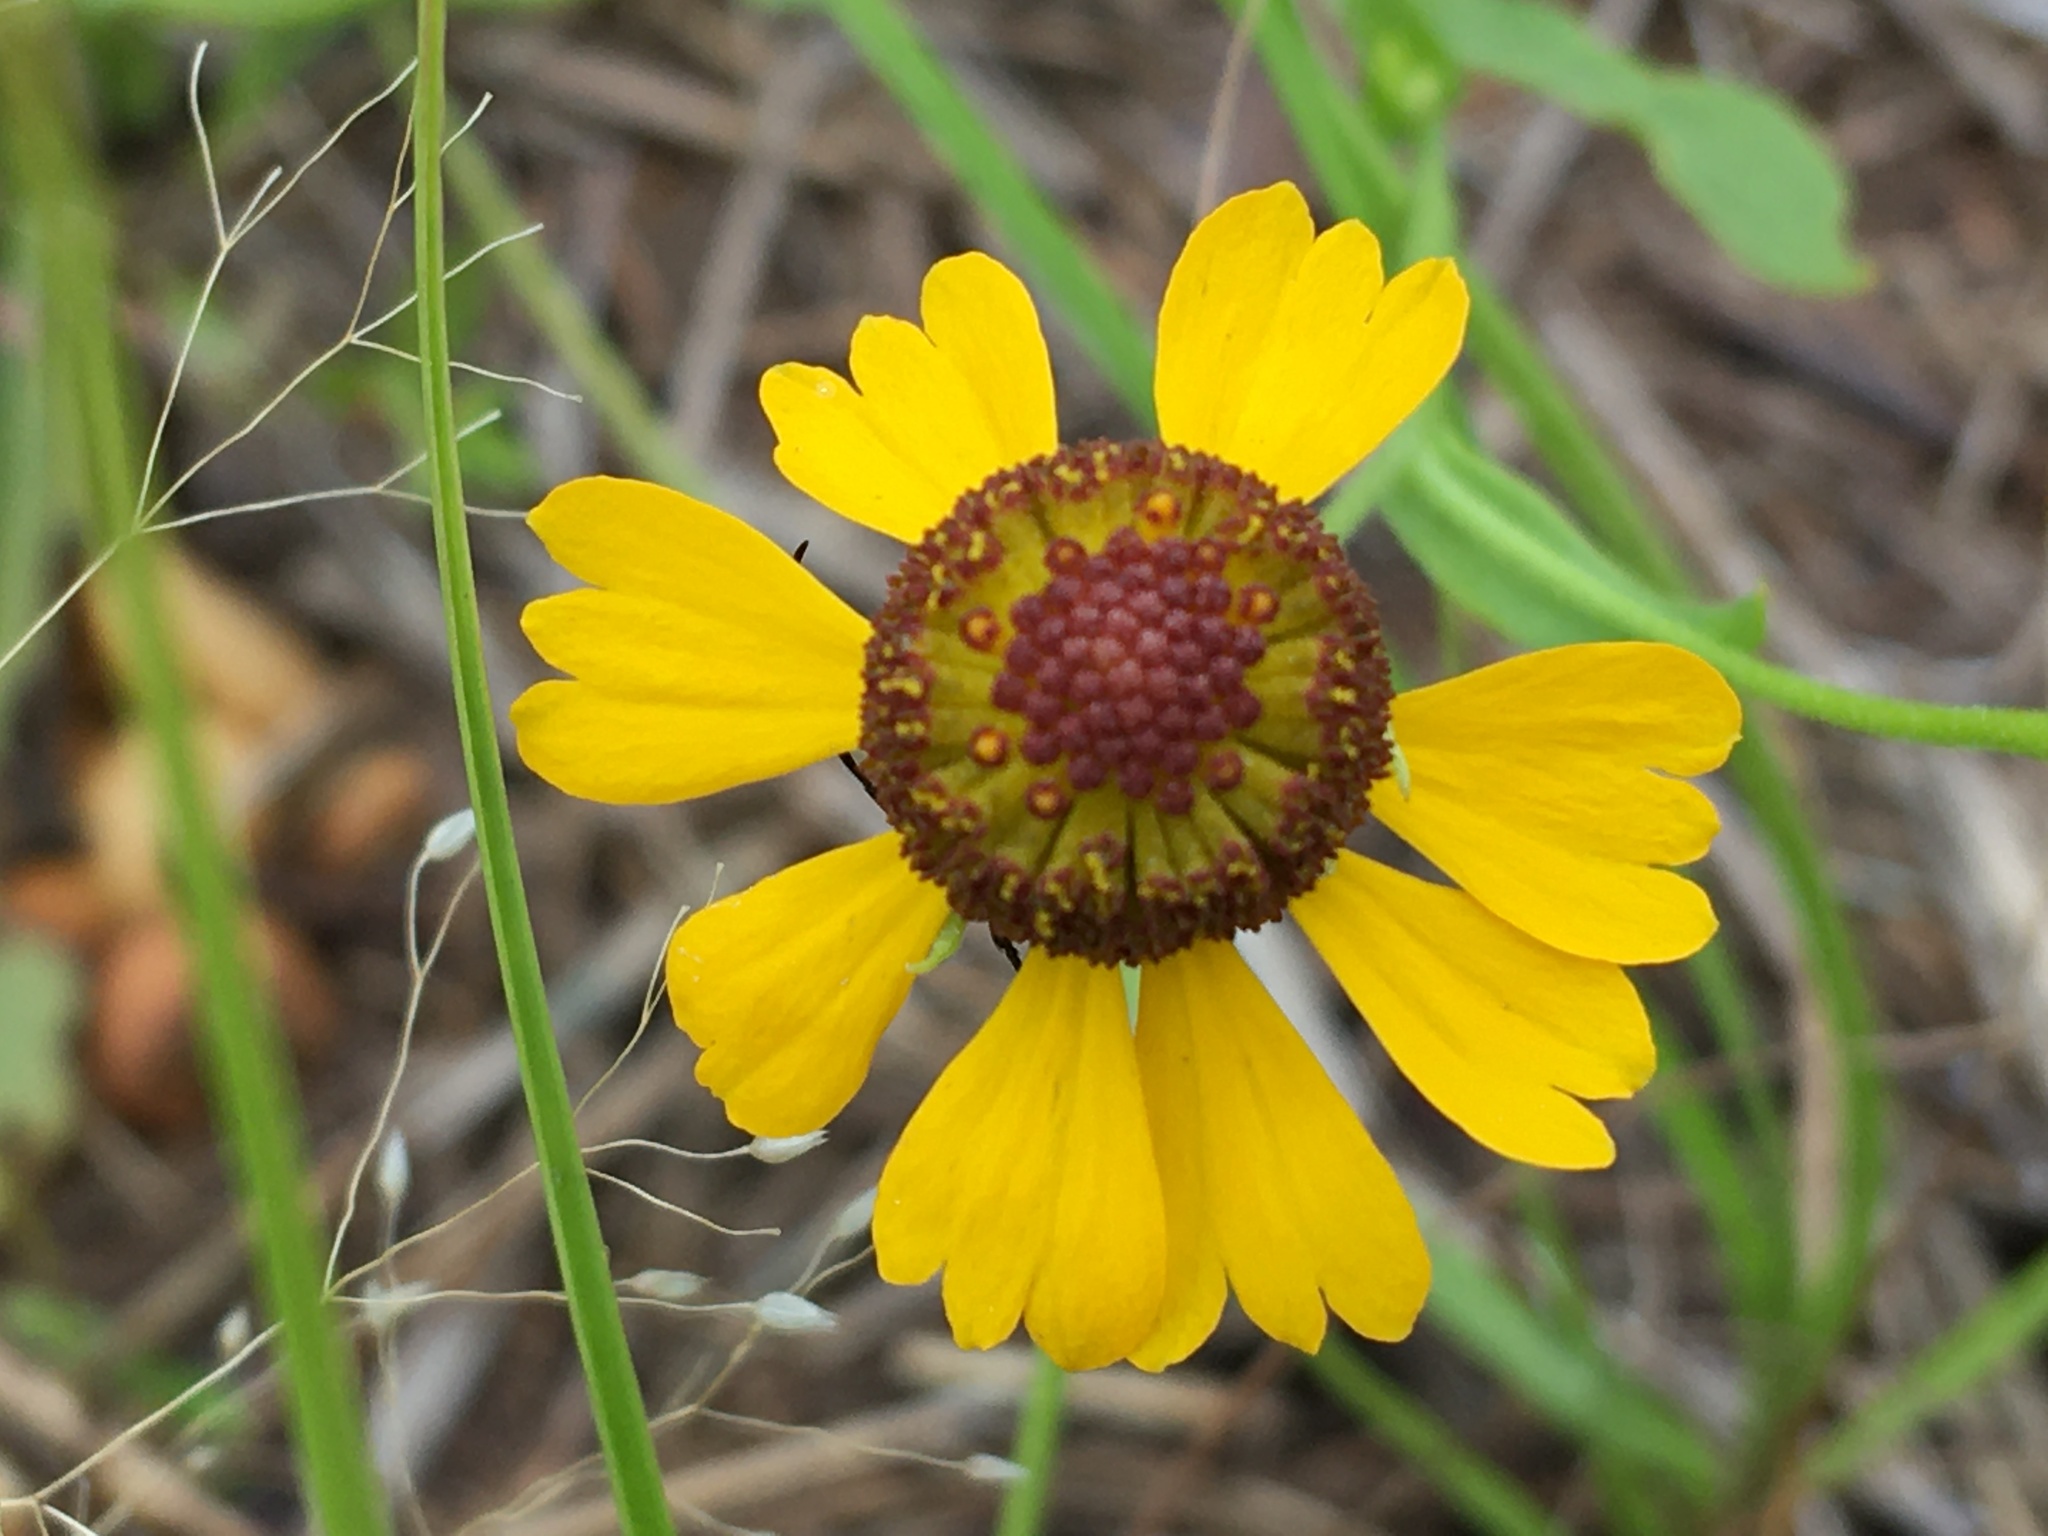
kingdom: Plantae
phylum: Tracheophyta
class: Magnoliopsida
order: Asterales
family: Asteraceae
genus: Helenium
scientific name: Helenium flexuosum
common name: Naked-flowered sneezeweed
